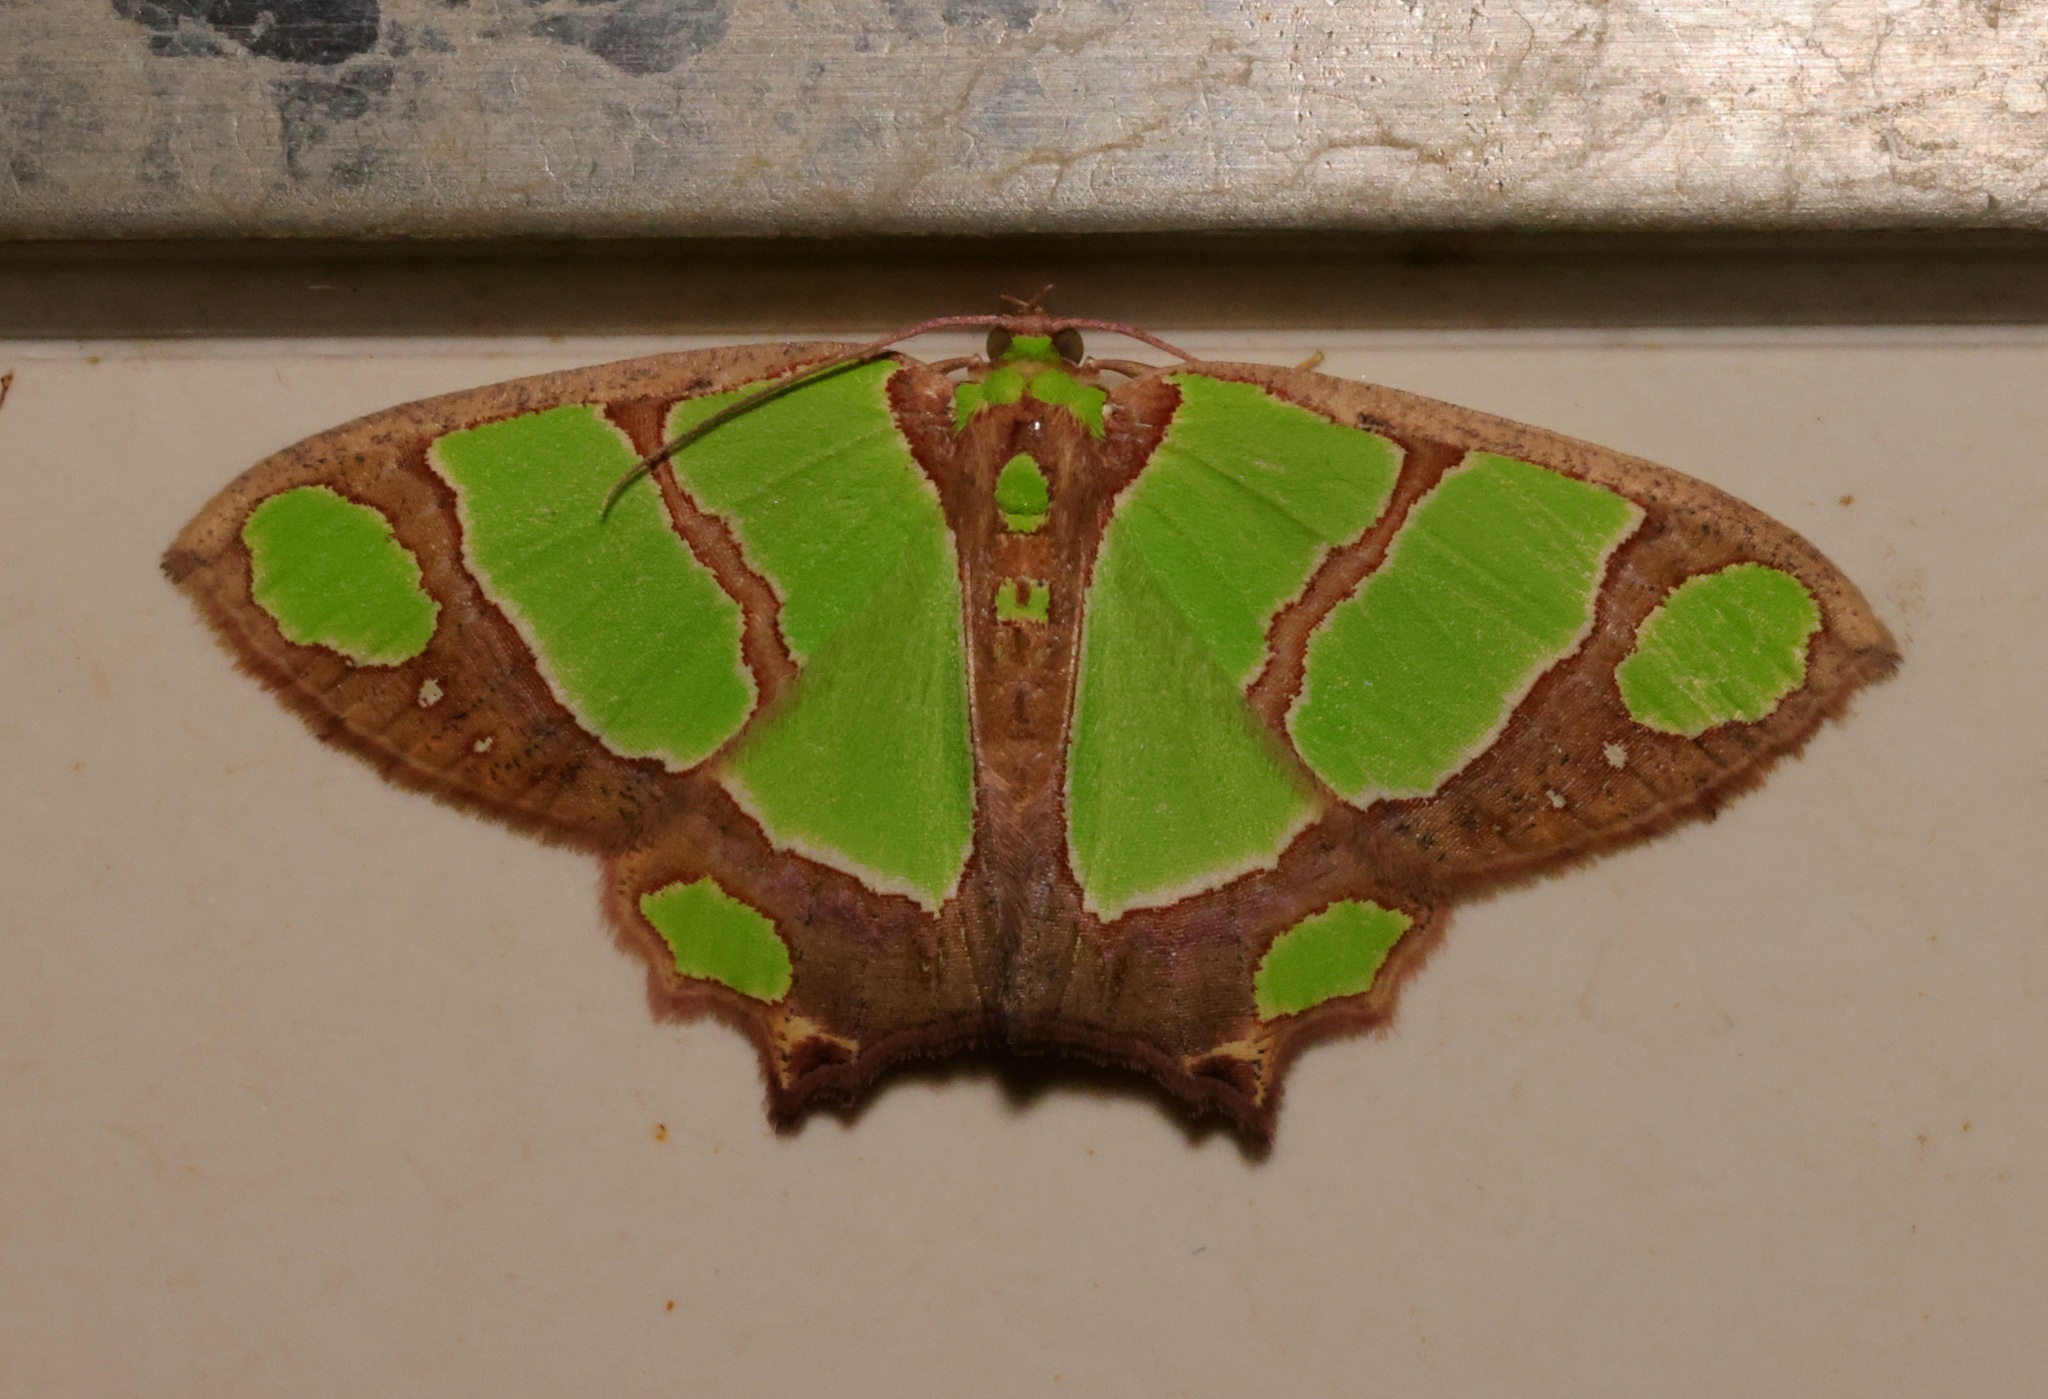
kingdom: Animalia
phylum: Arthropoda
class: Insecta
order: Lepidoptera
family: Geometridae
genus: Agathia
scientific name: Agathia carissima
